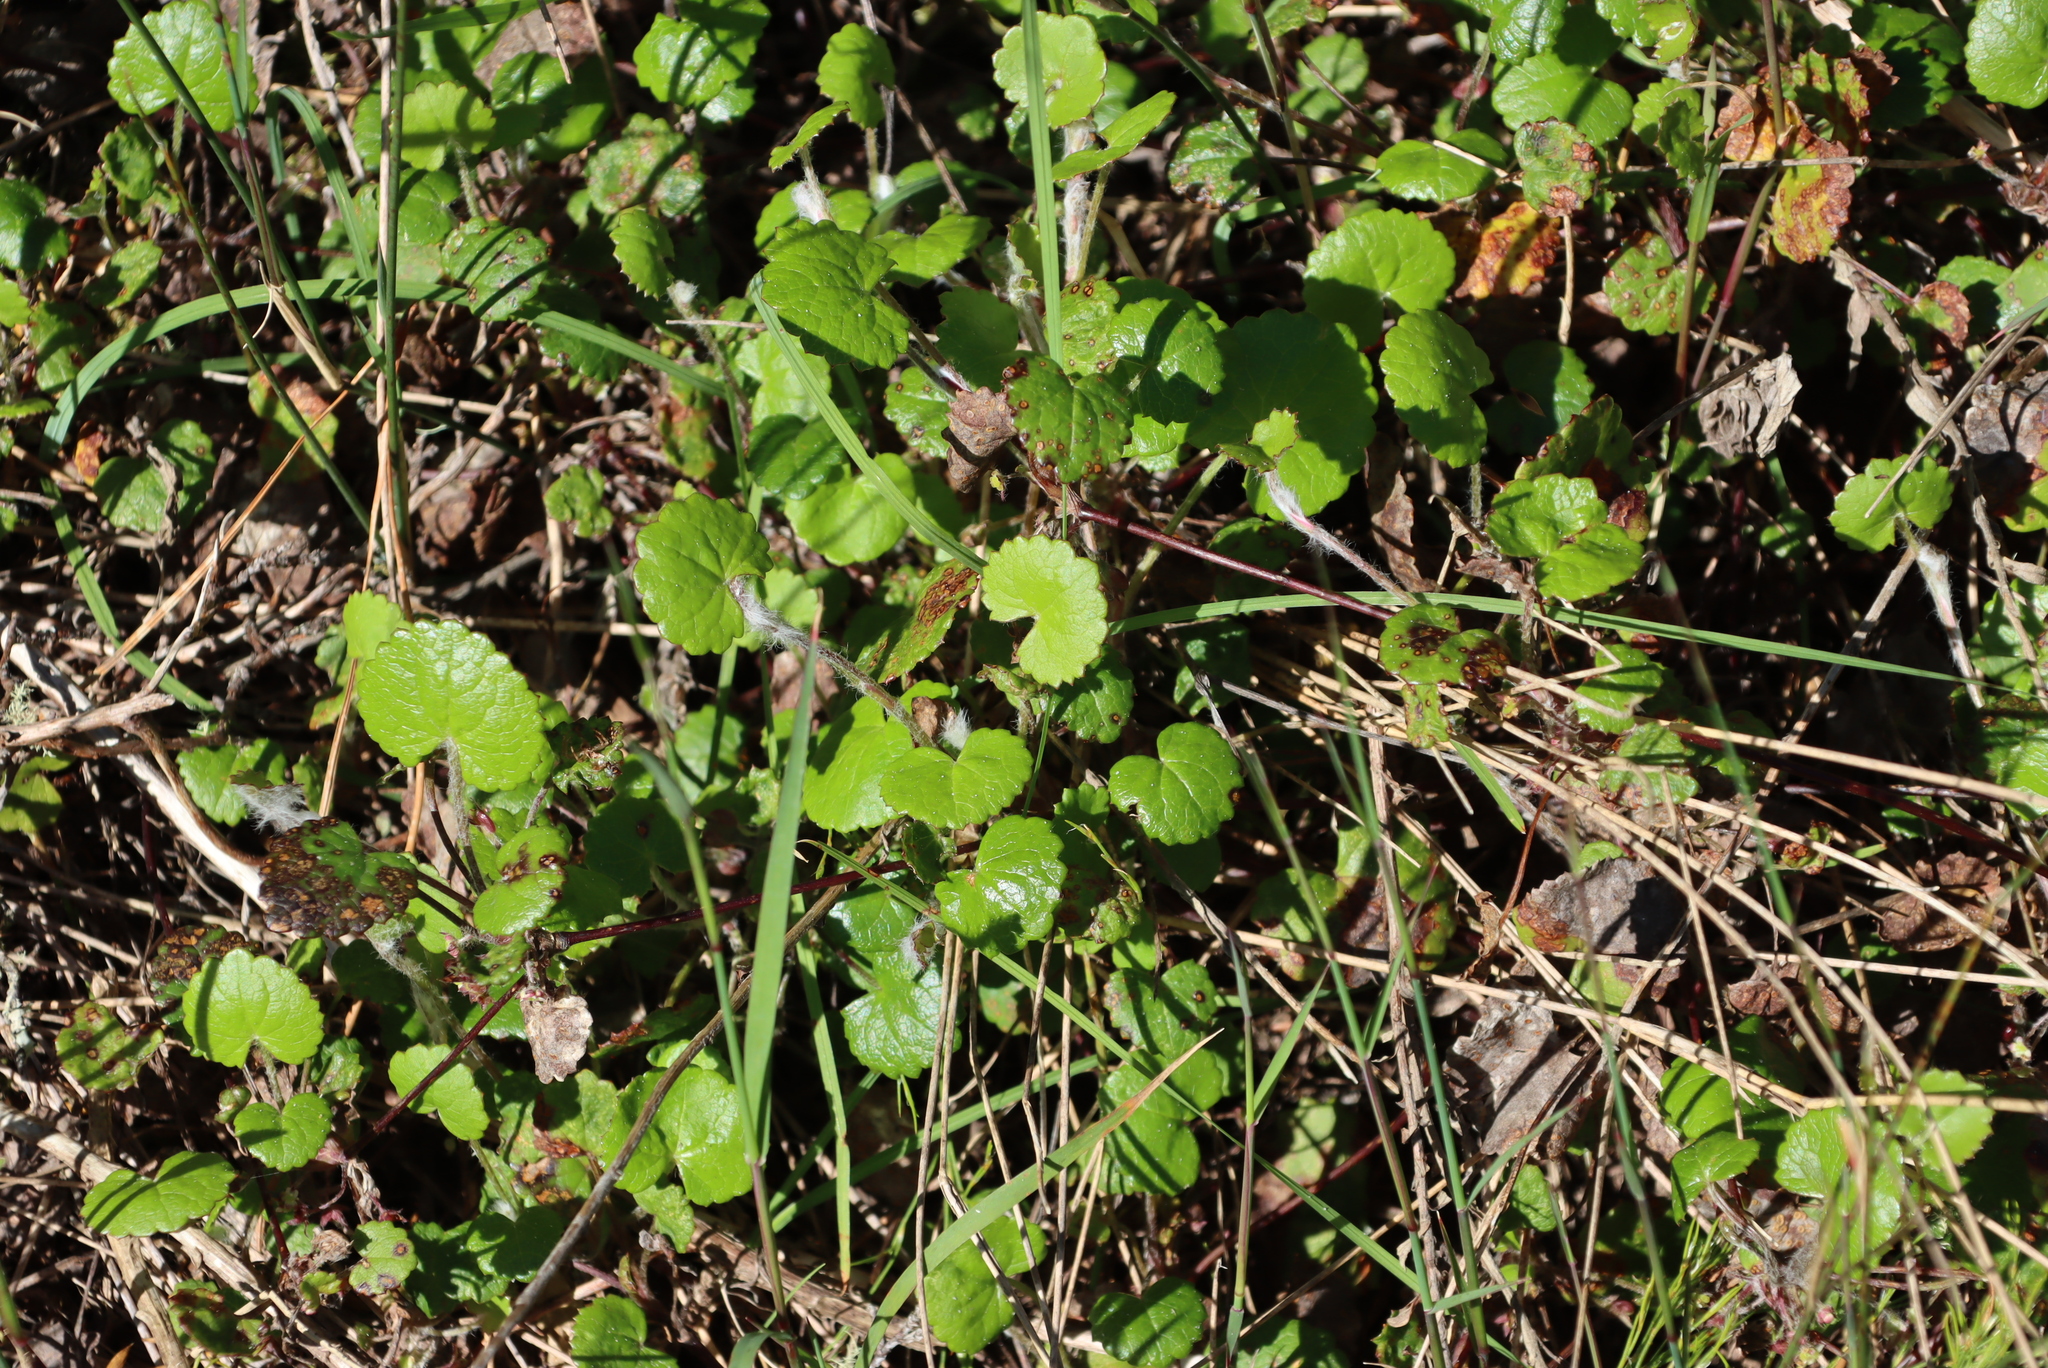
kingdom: Plantae
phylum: Tracheophyta
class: Magnoliopsida
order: Asterales
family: Asteraceae
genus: Cineraria
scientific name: Cineraria geifolia
